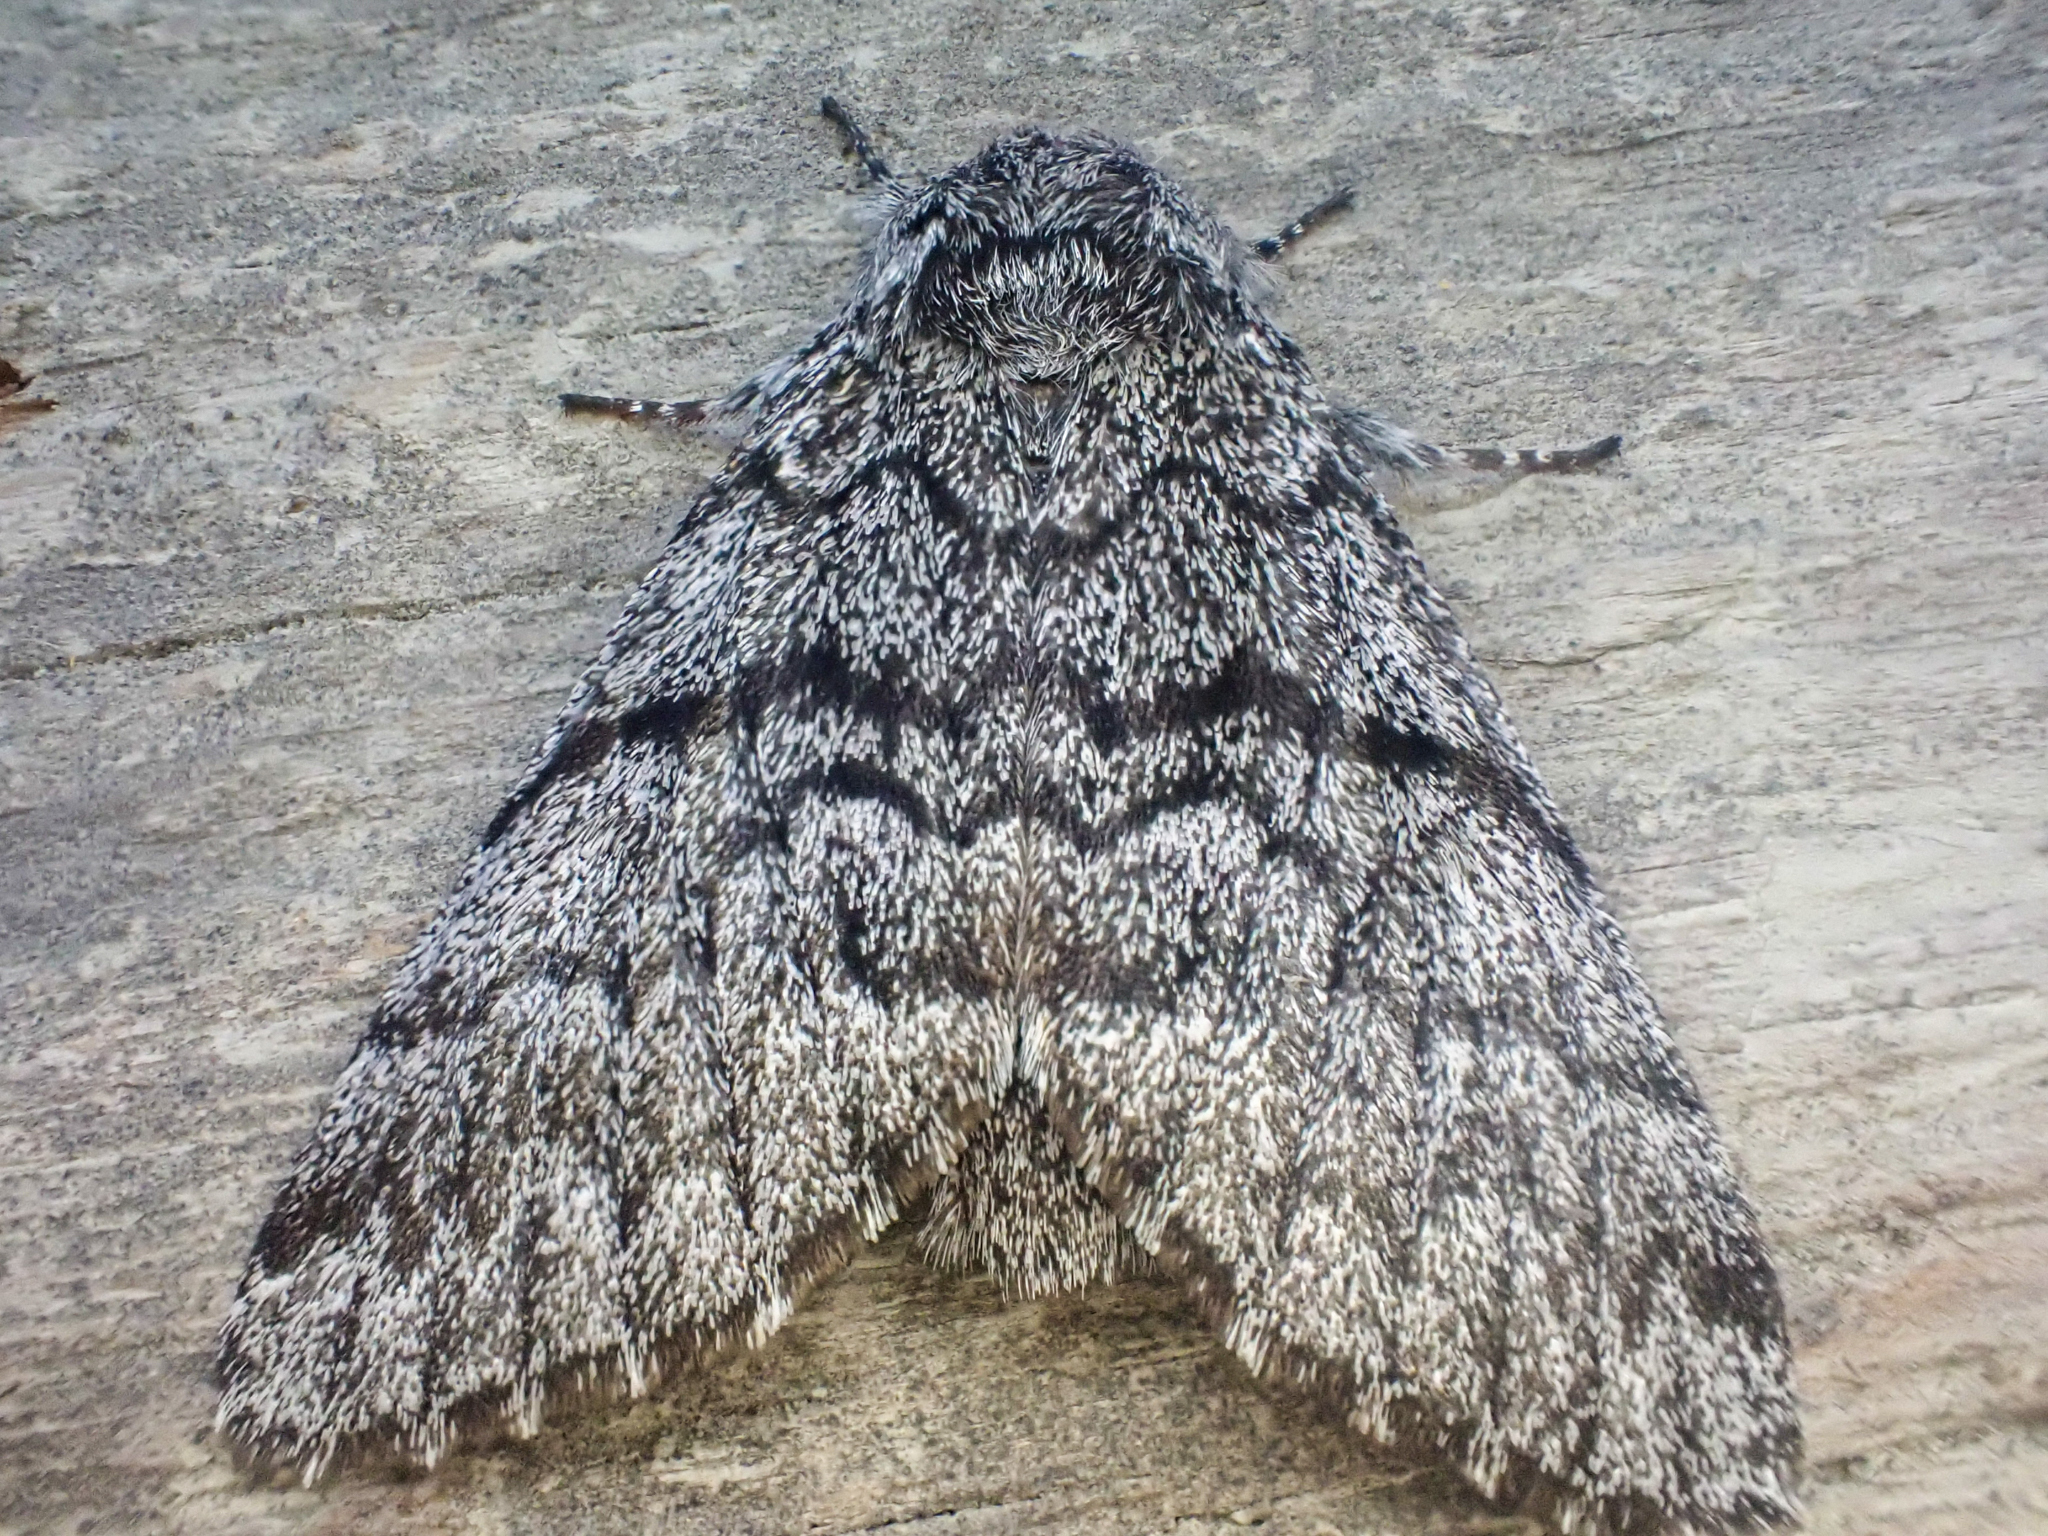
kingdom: Animalia
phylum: Arthropoda
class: Insecta
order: Lepidoptera
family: Noctuidae
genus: Panthea
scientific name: Panthea virginarius
